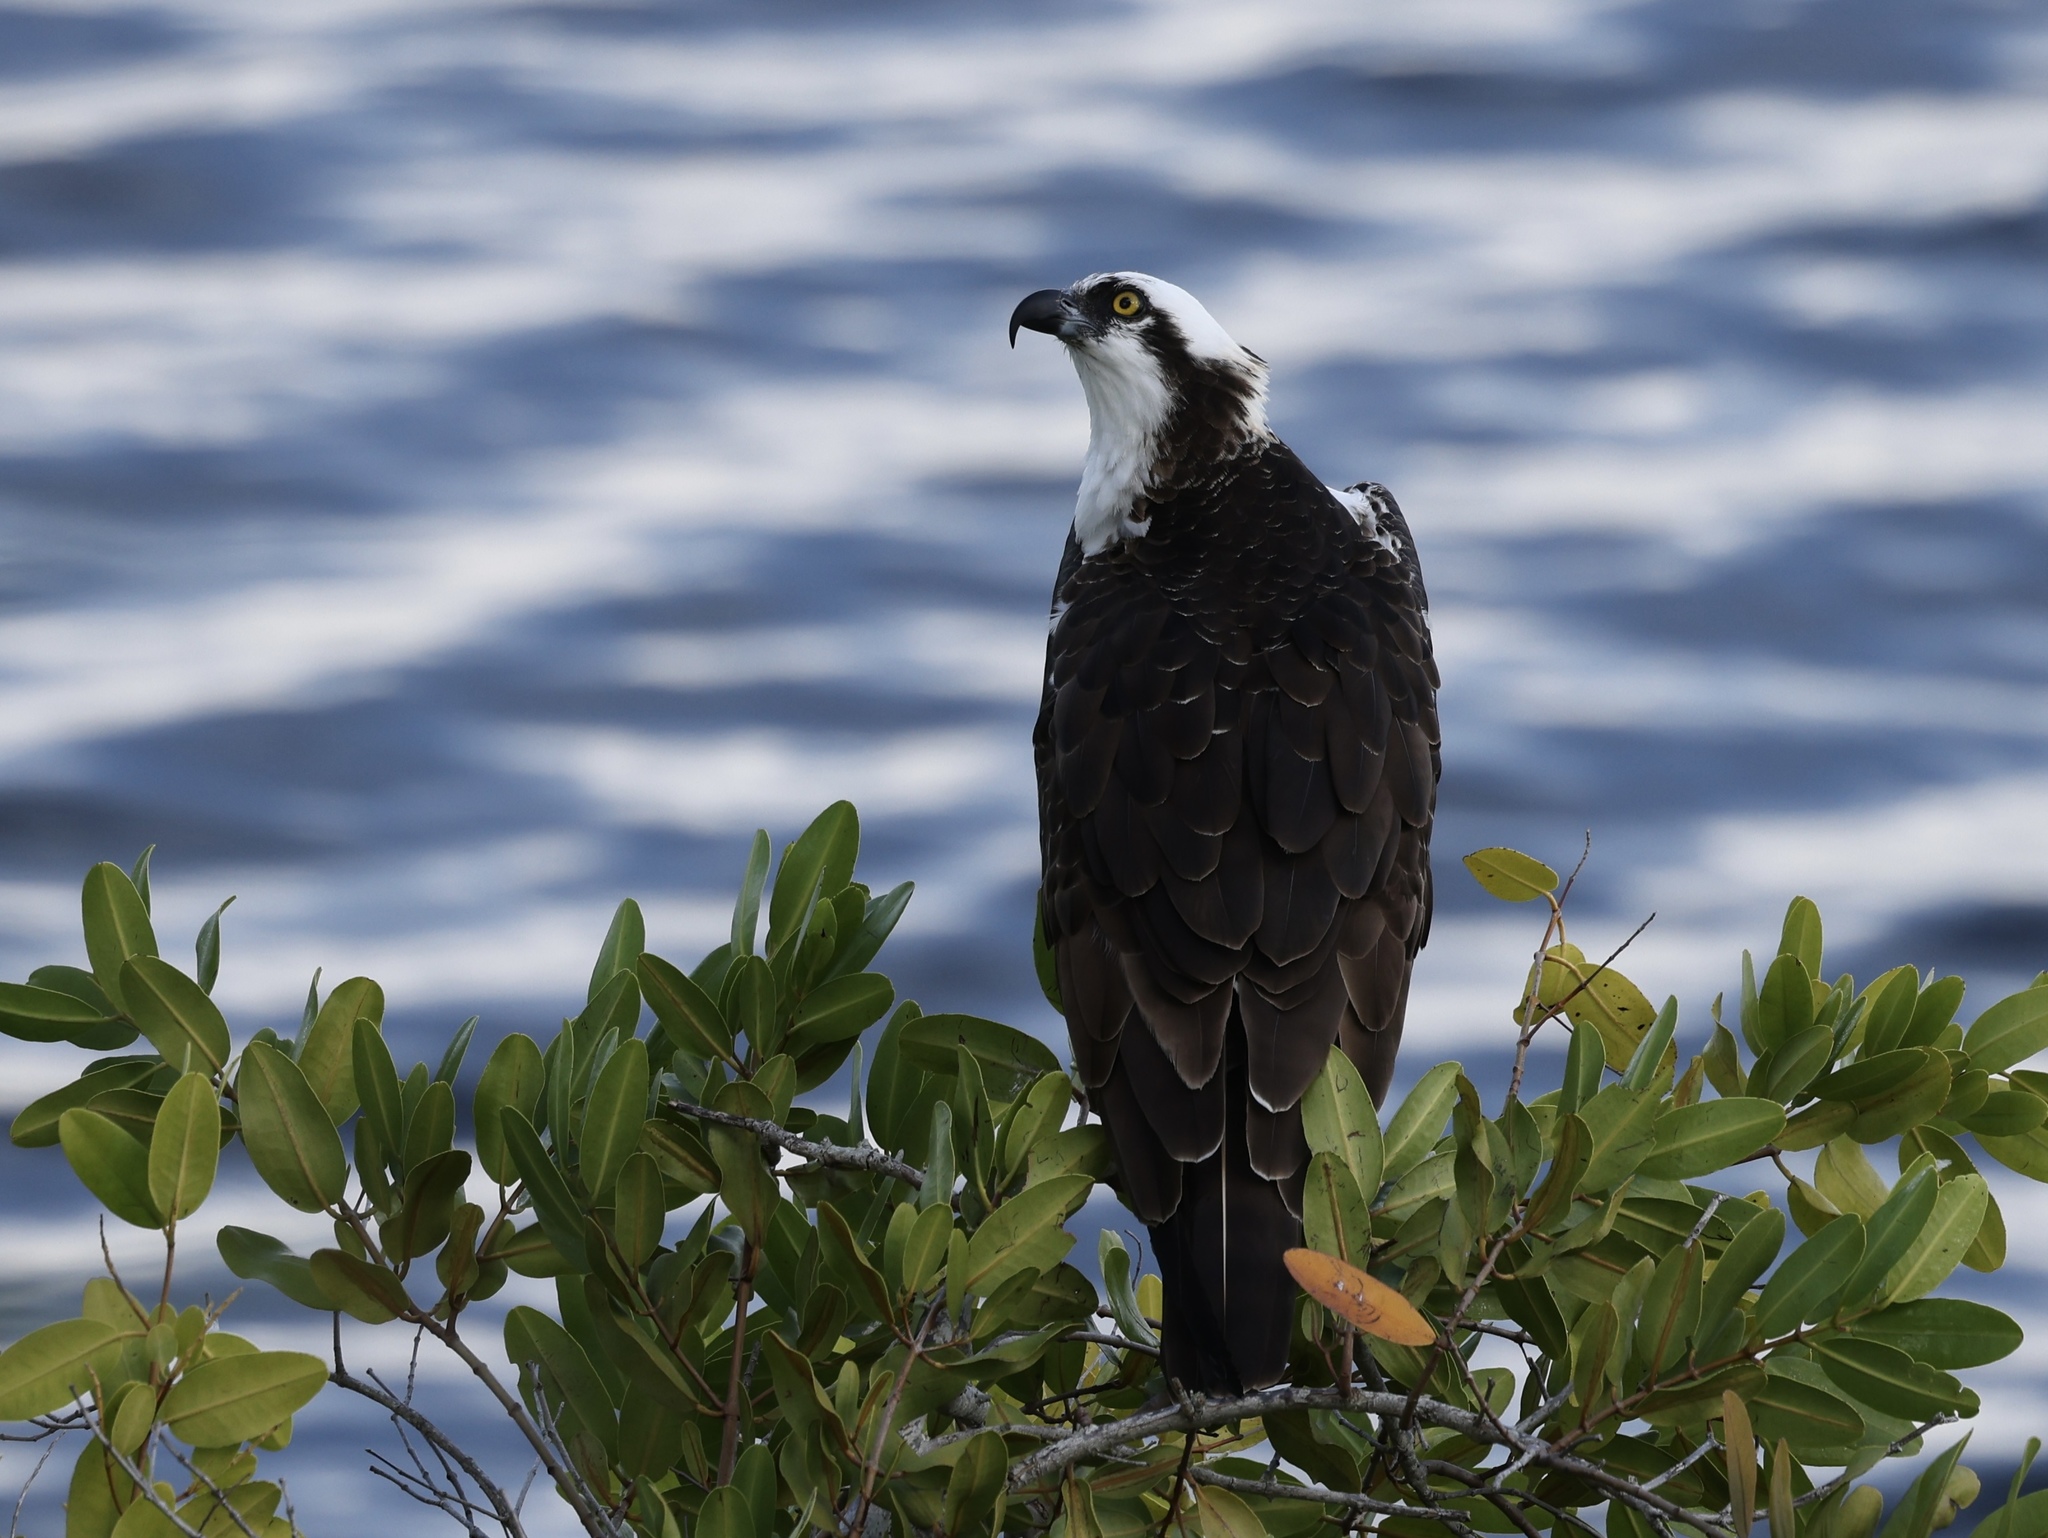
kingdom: Animalia
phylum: Chordata
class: Aves
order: Accipitriformes
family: Pandionidae
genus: Pandion
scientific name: Pandion haliaetus
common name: Osprey
